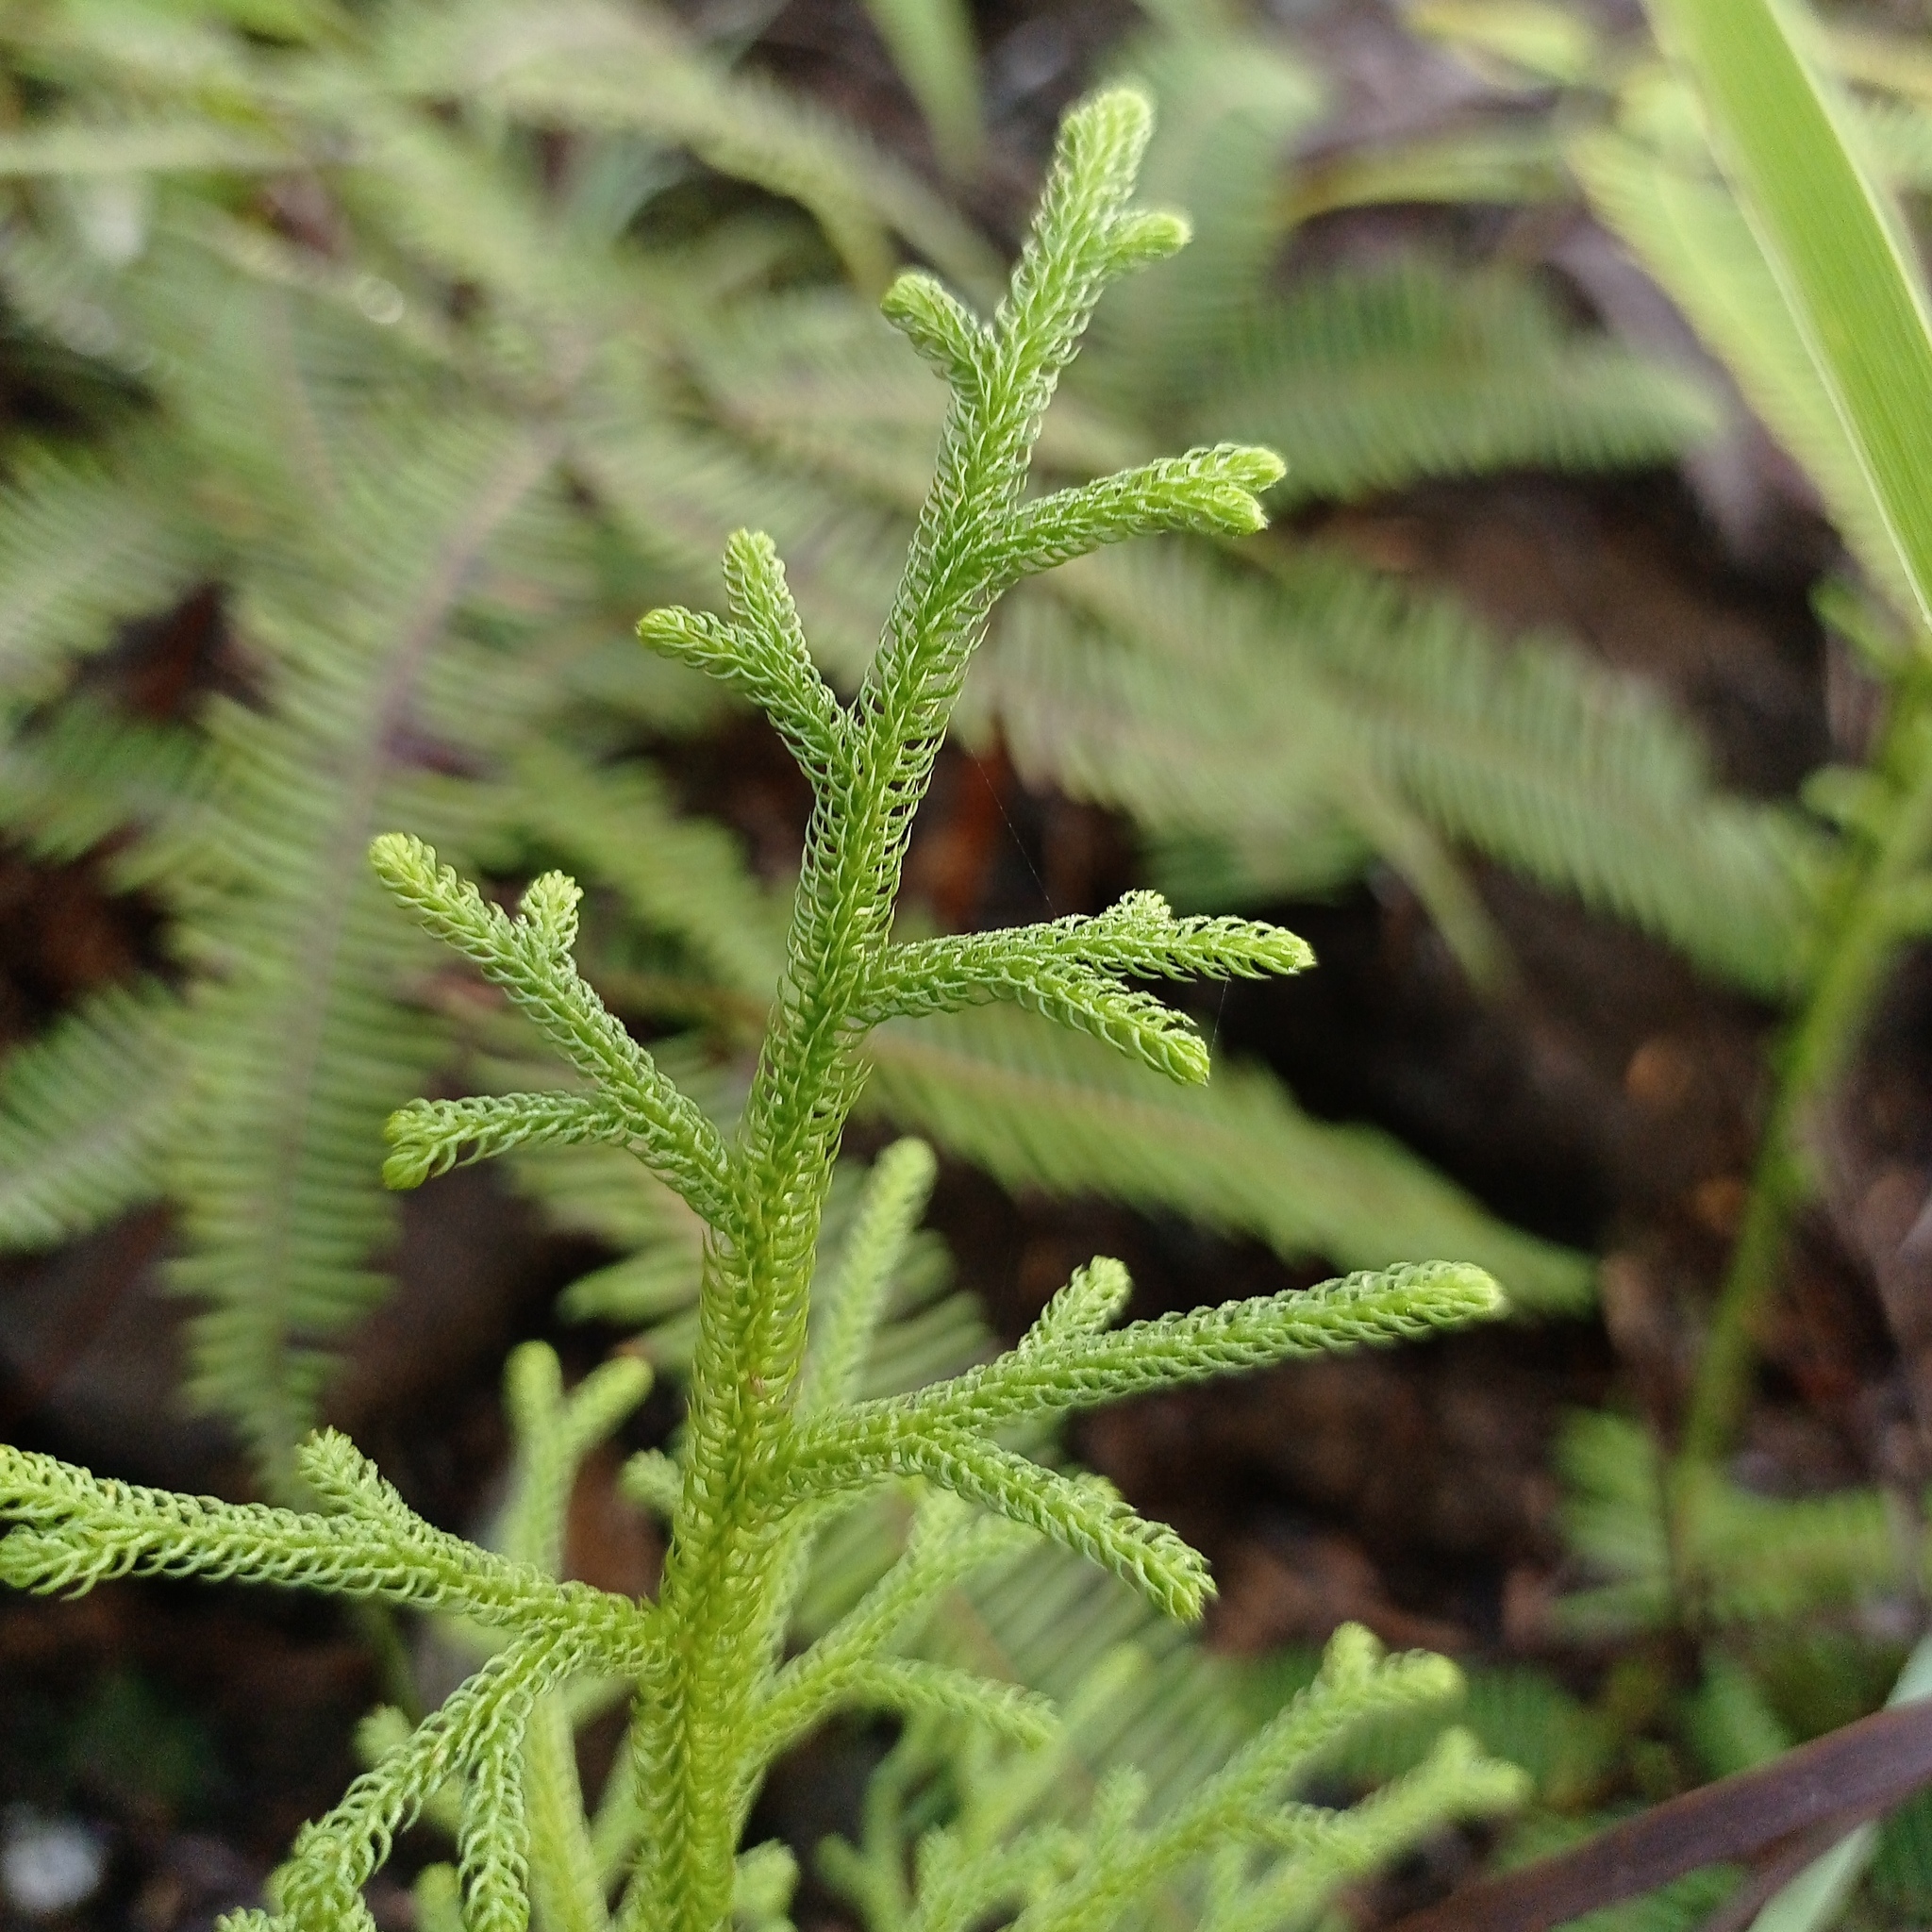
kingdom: Plantae
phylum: Tracheophyta
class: Lycopodiopsida
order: Lycopodiales
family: Lycopodiaceae
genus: Palhinhaea
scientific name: Palhinhaea cernua
